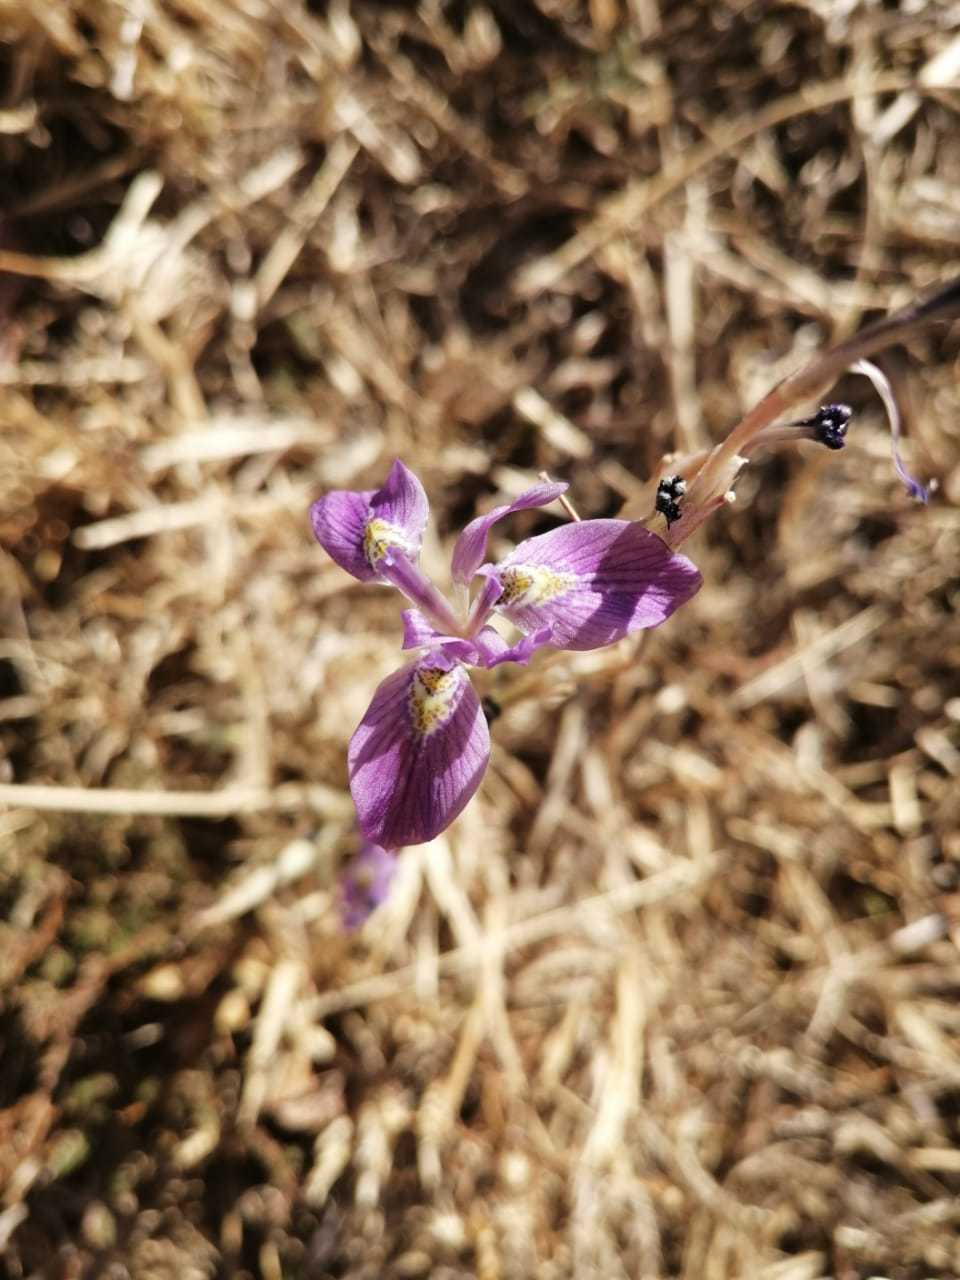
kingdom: Plantae
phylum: Tracheophyta
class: Liliopsida
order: Asparagales
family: Iridaceae
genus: Moraea
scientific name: Moraea simulans
